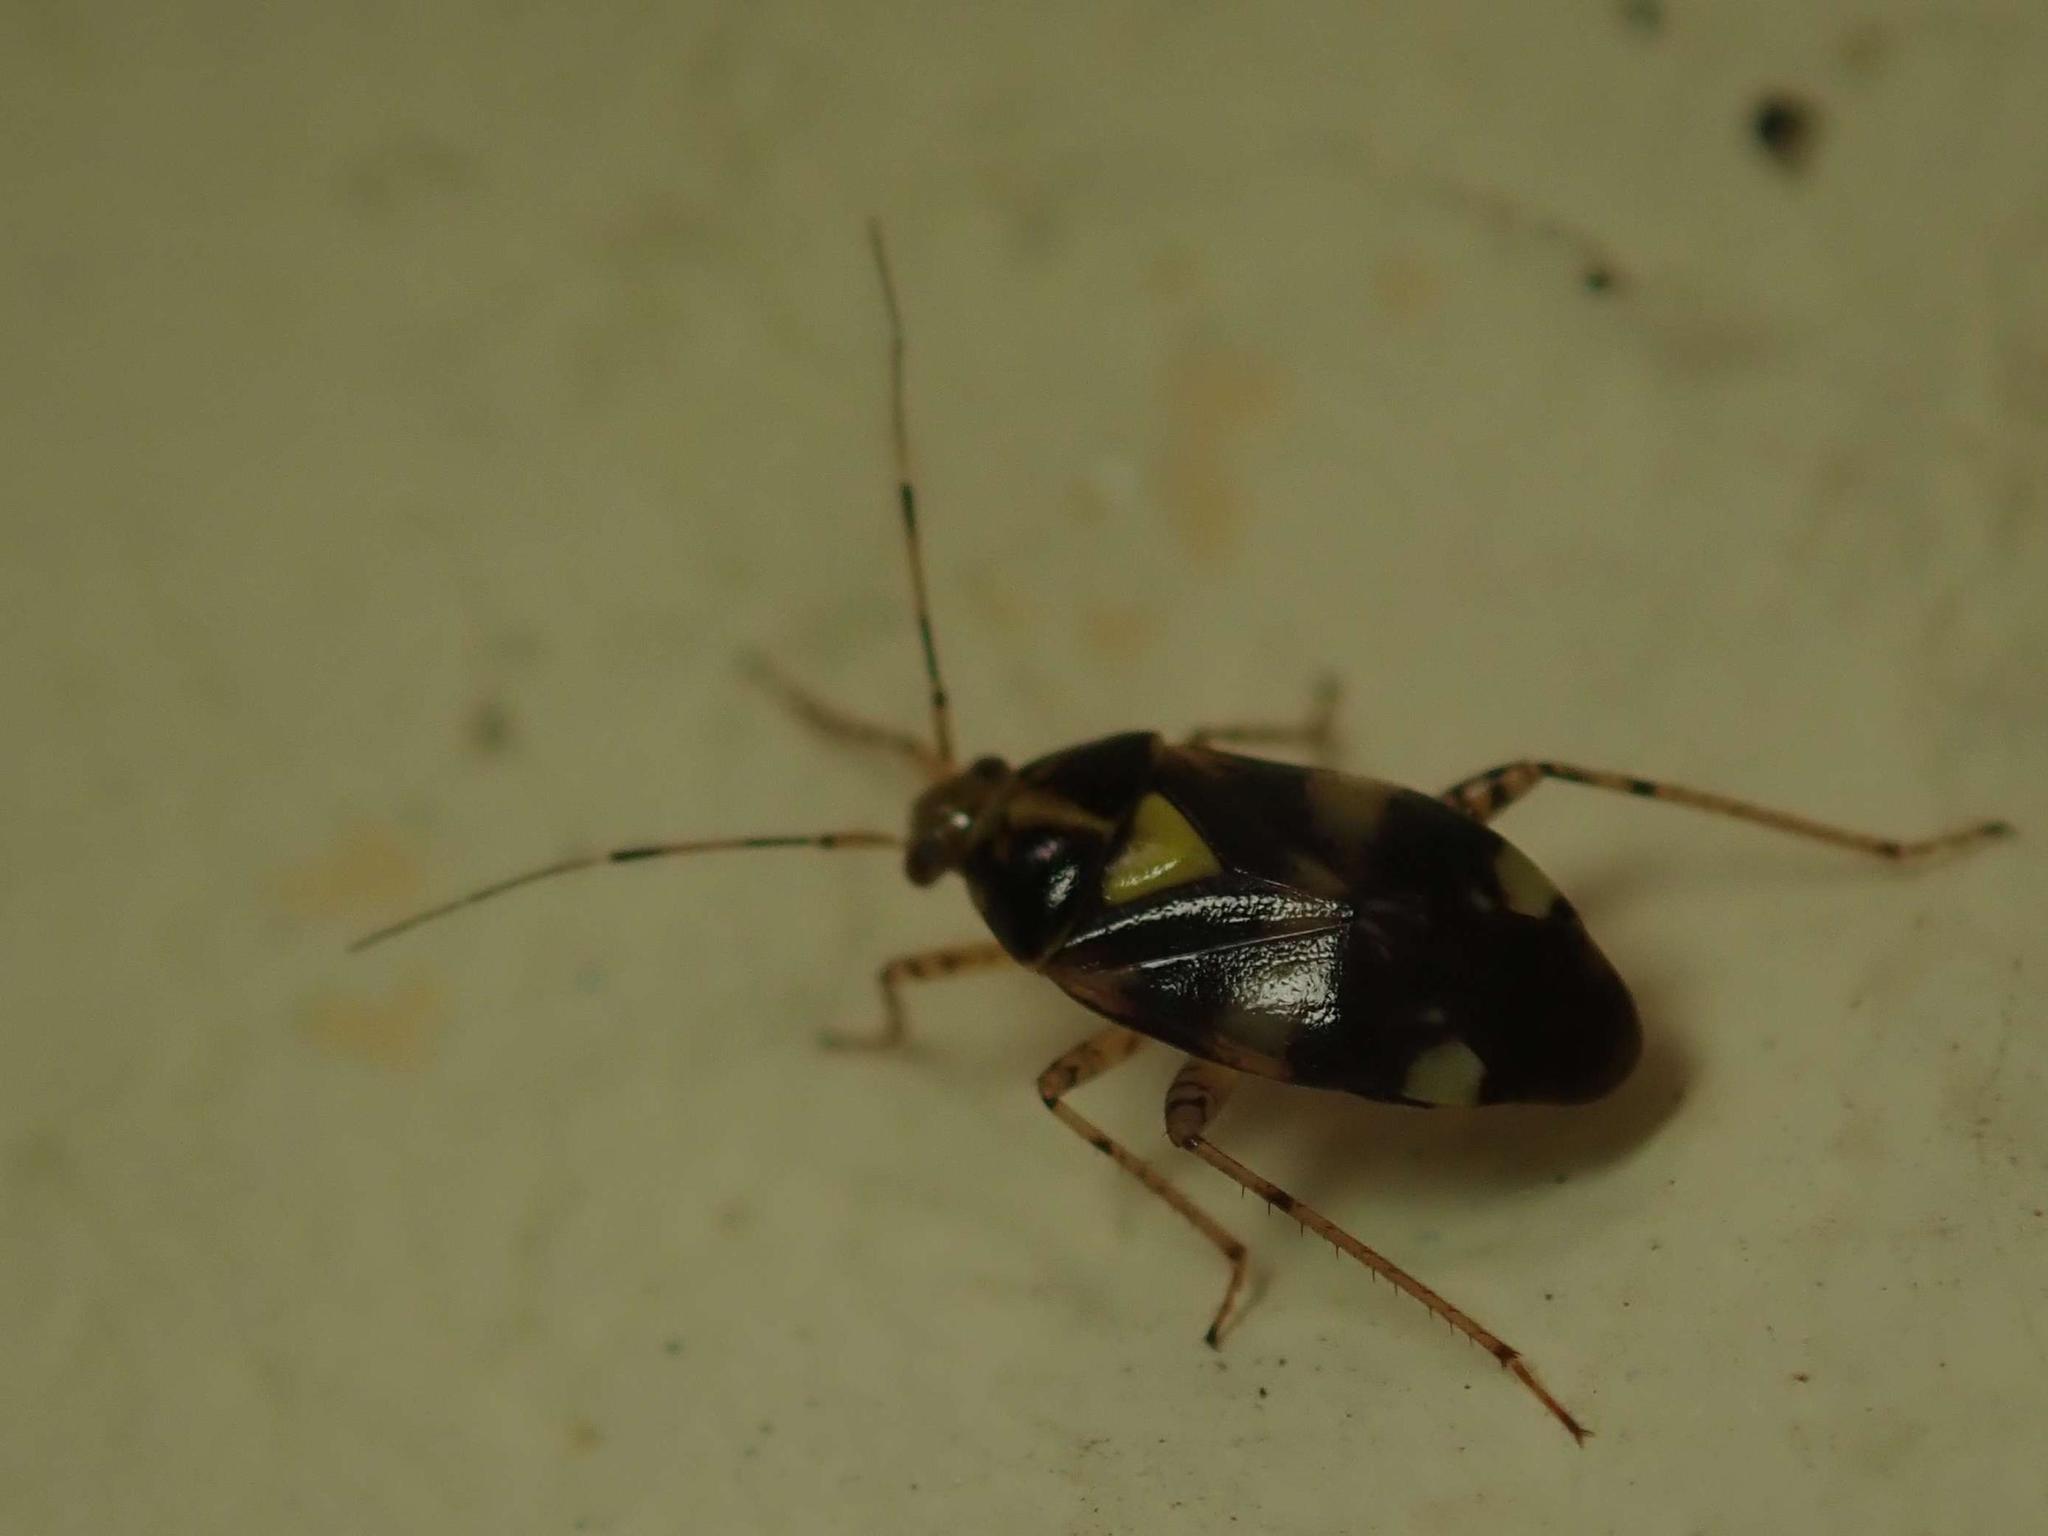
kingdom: Animalia
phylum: Arthropoda
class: Insecta
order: Hemiptera
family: Miridae
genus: Liocoris
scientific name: Liocoris tripustulatus
